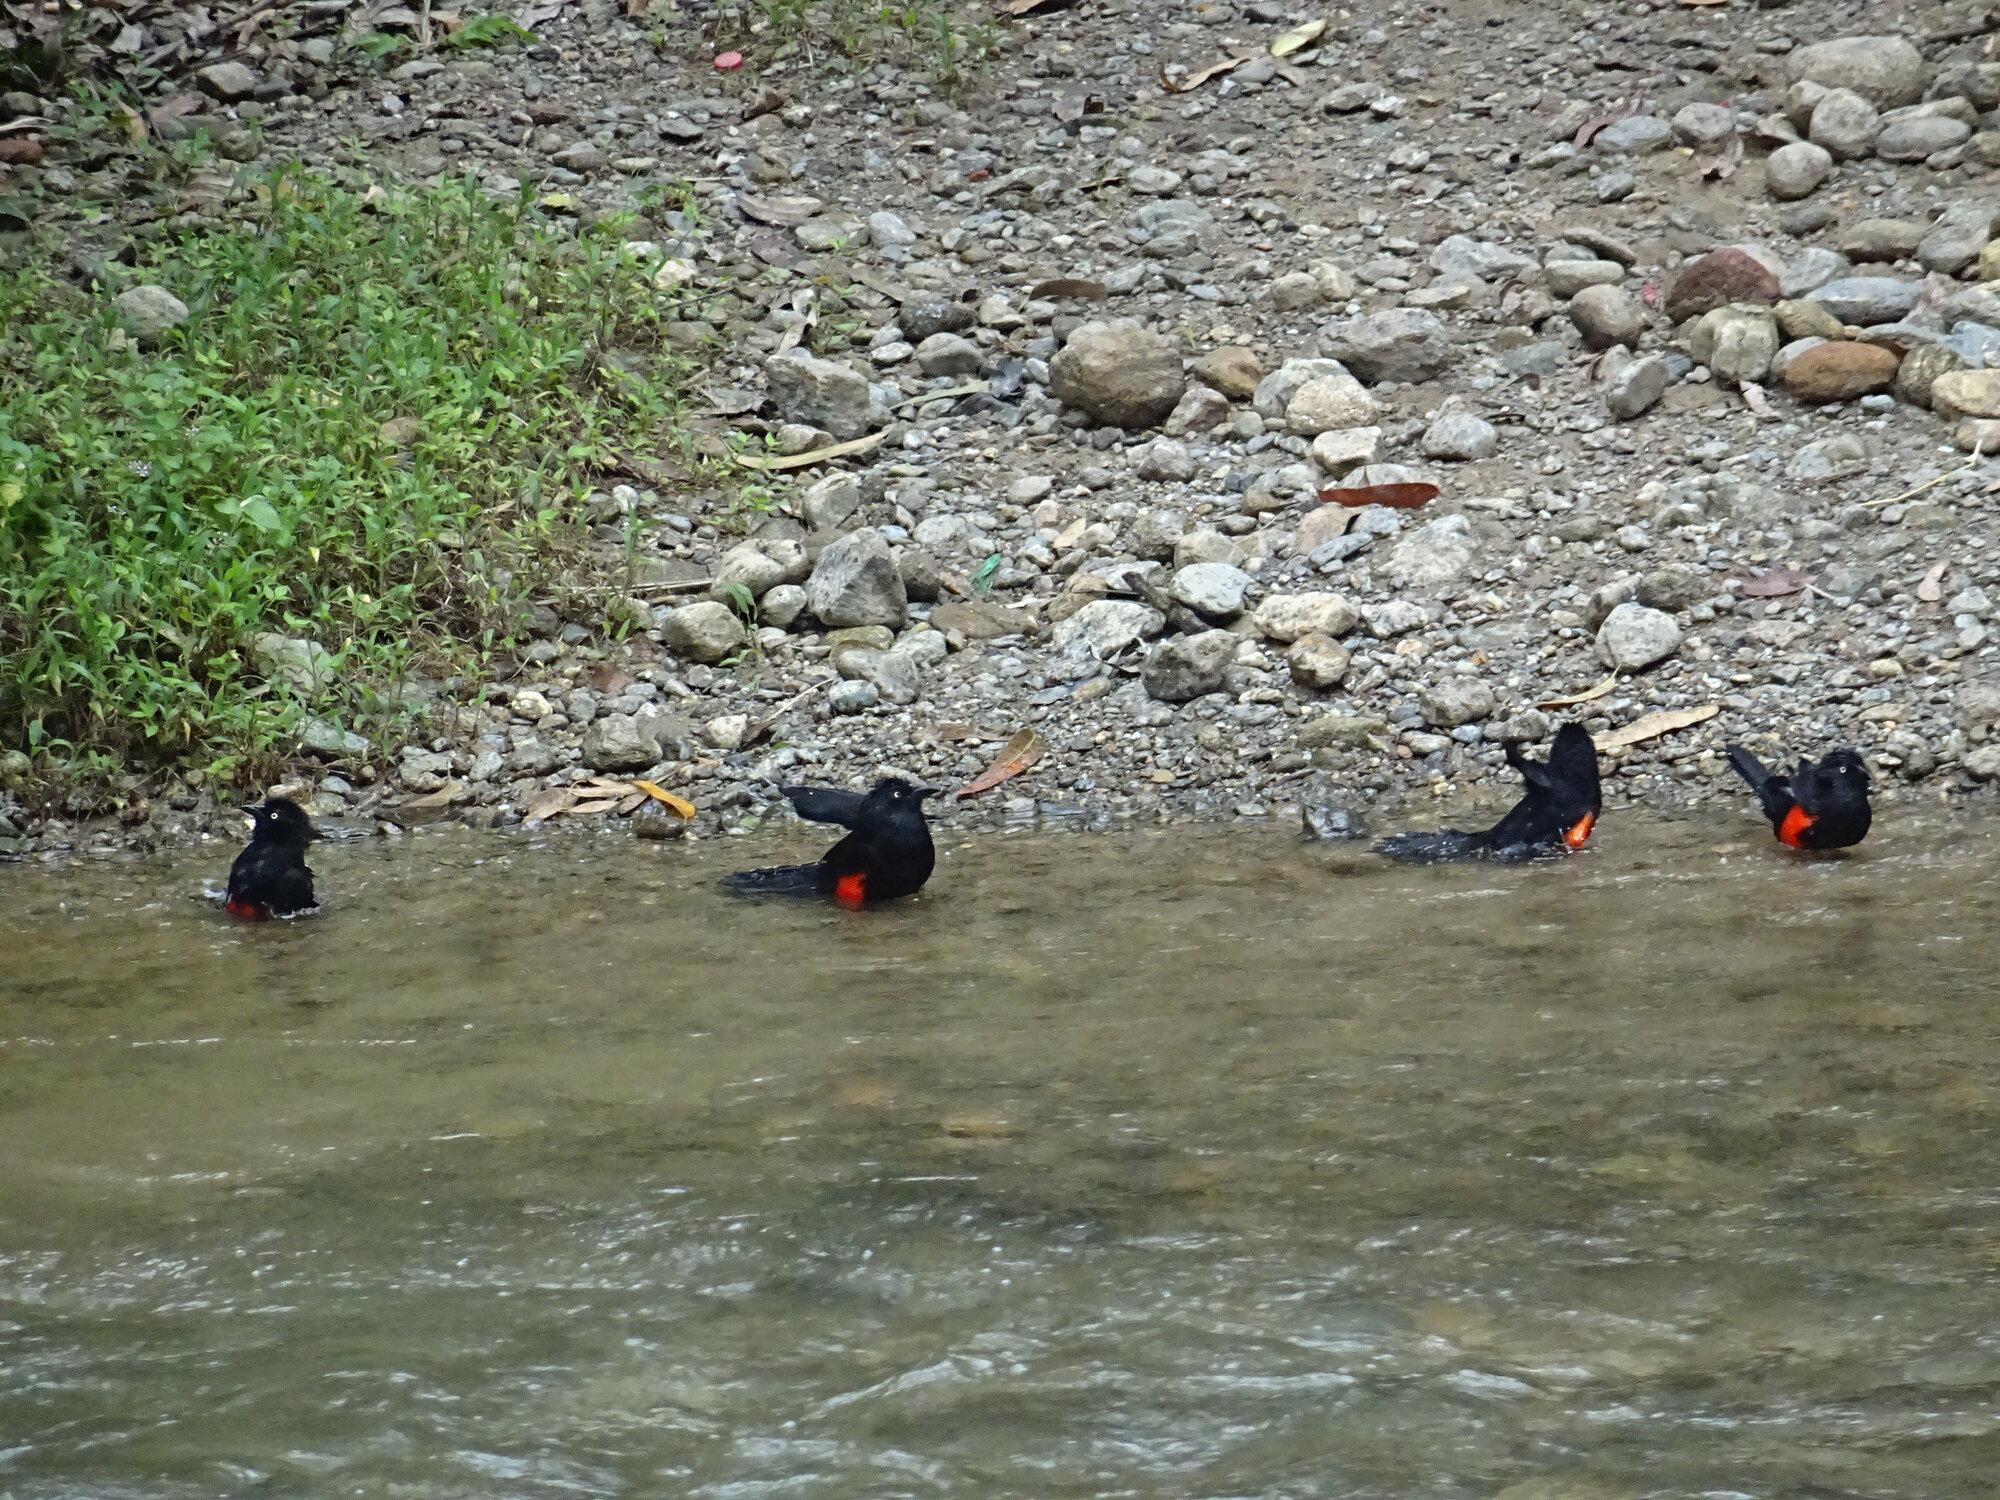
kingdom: Animalia
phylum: Chordata
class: Aves
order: Passeriformes
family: Icteridae
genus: Hypopyrrhus
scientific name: Hypopyrrhus pyrohypogaster
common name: Red-bellied grackle
